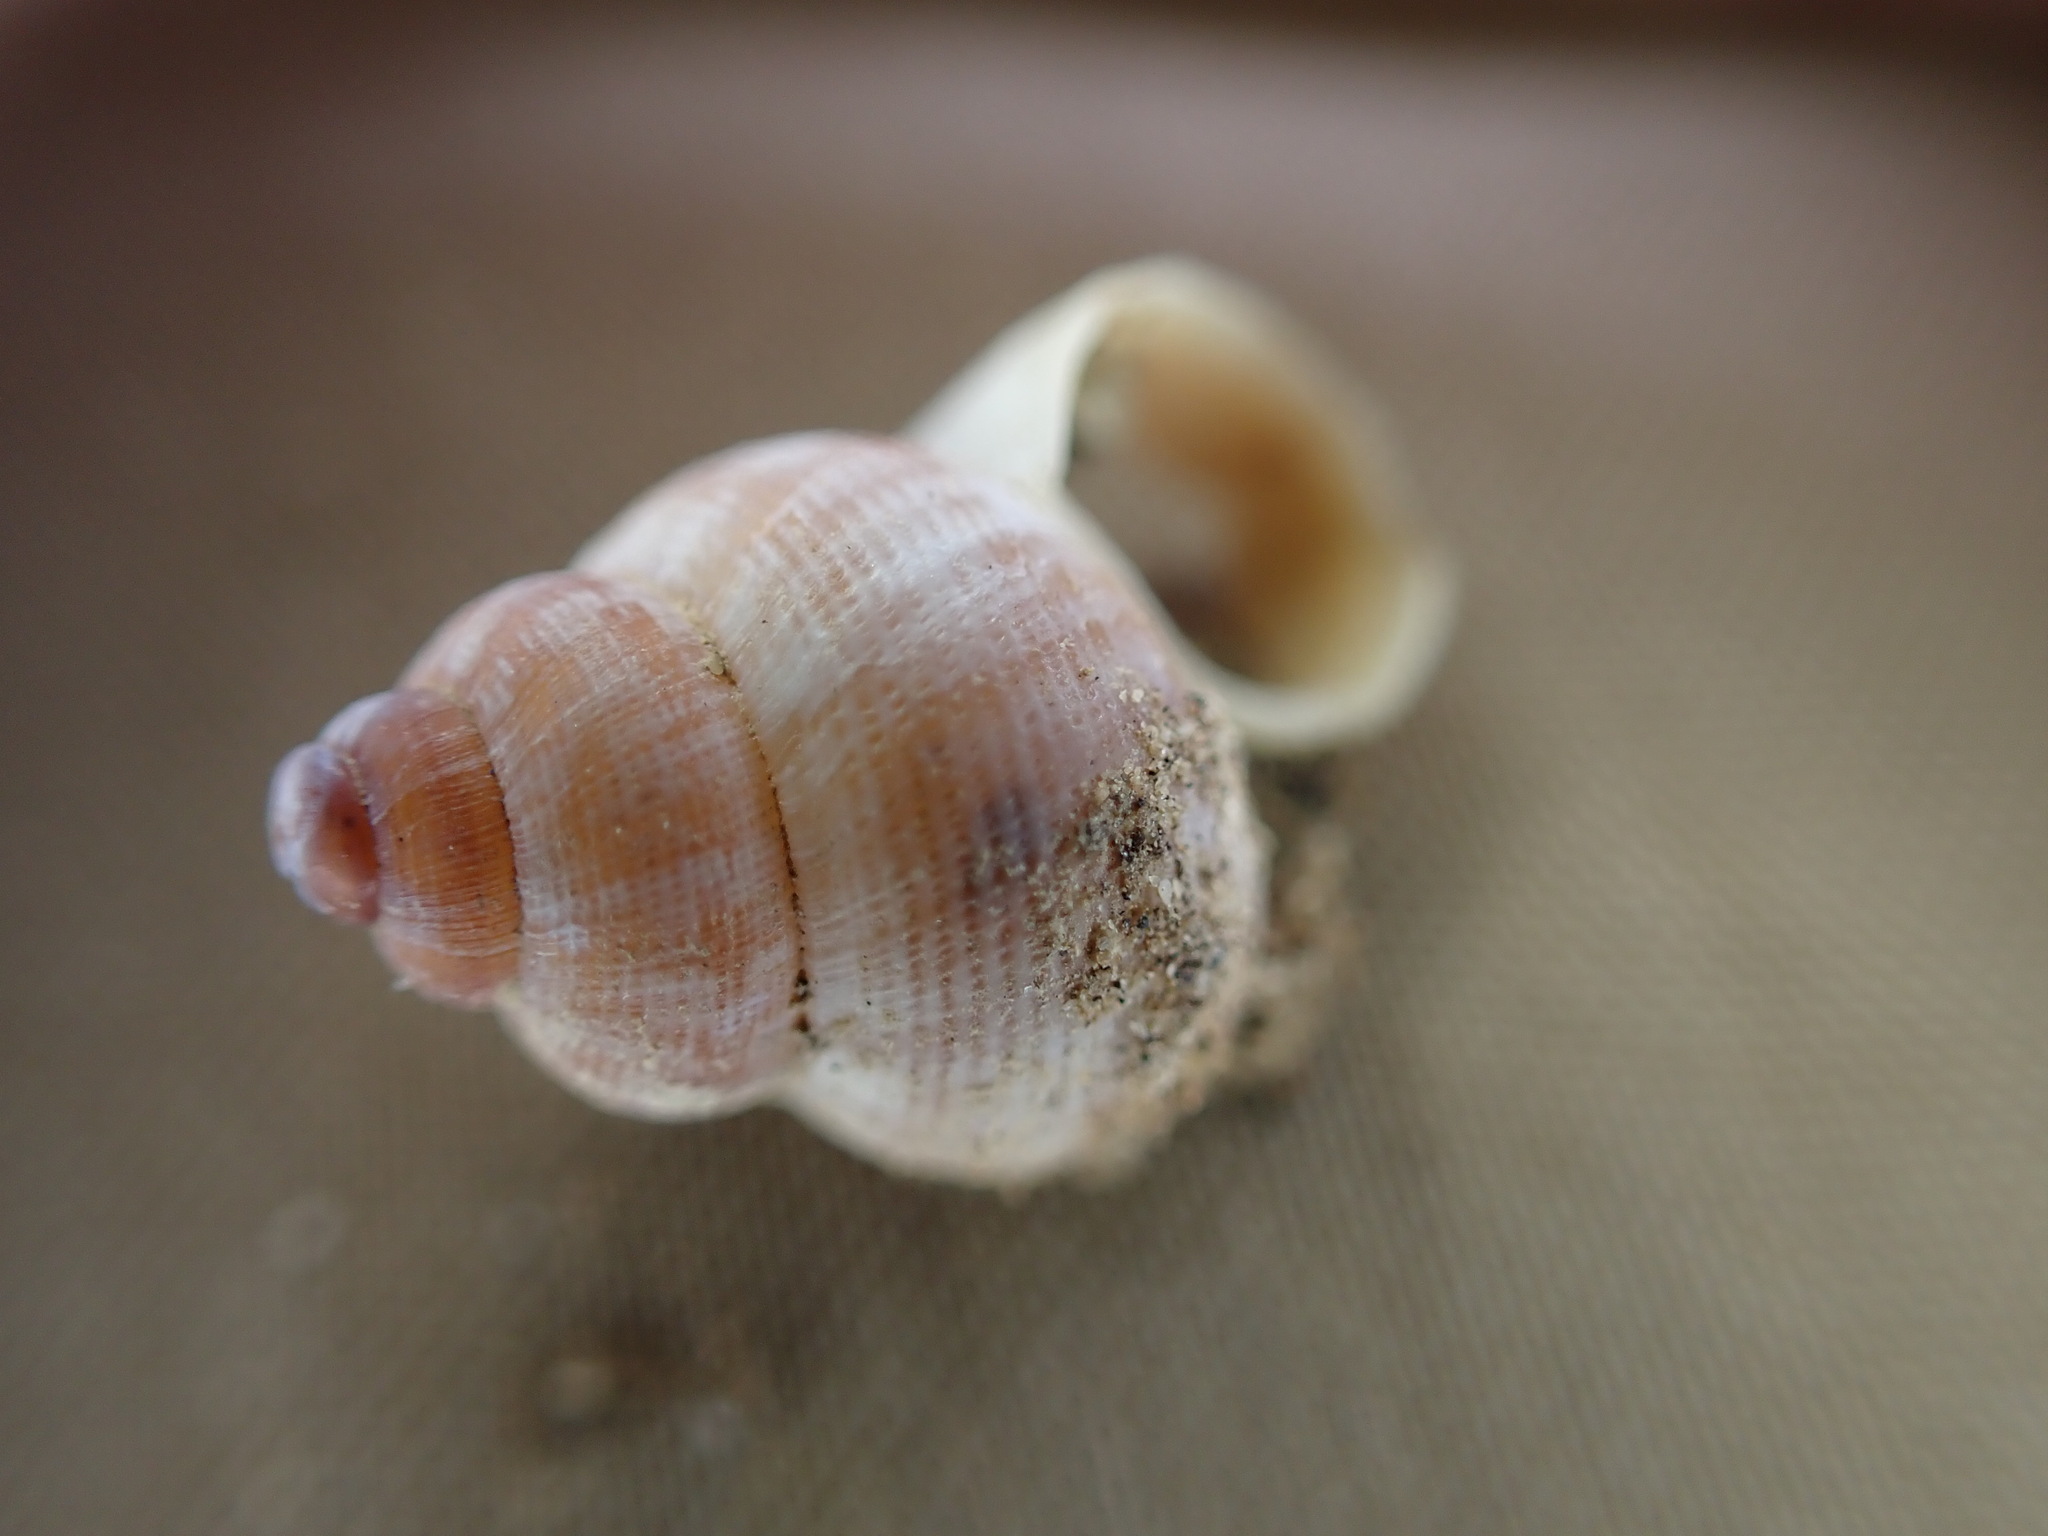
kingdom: Animalia
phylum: Mollusca
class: Gastropoda
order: Littorinimorpha
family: Pomatiidae
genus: Pomatias
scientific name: Pomatias elegans
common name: Red-mouthed snail
